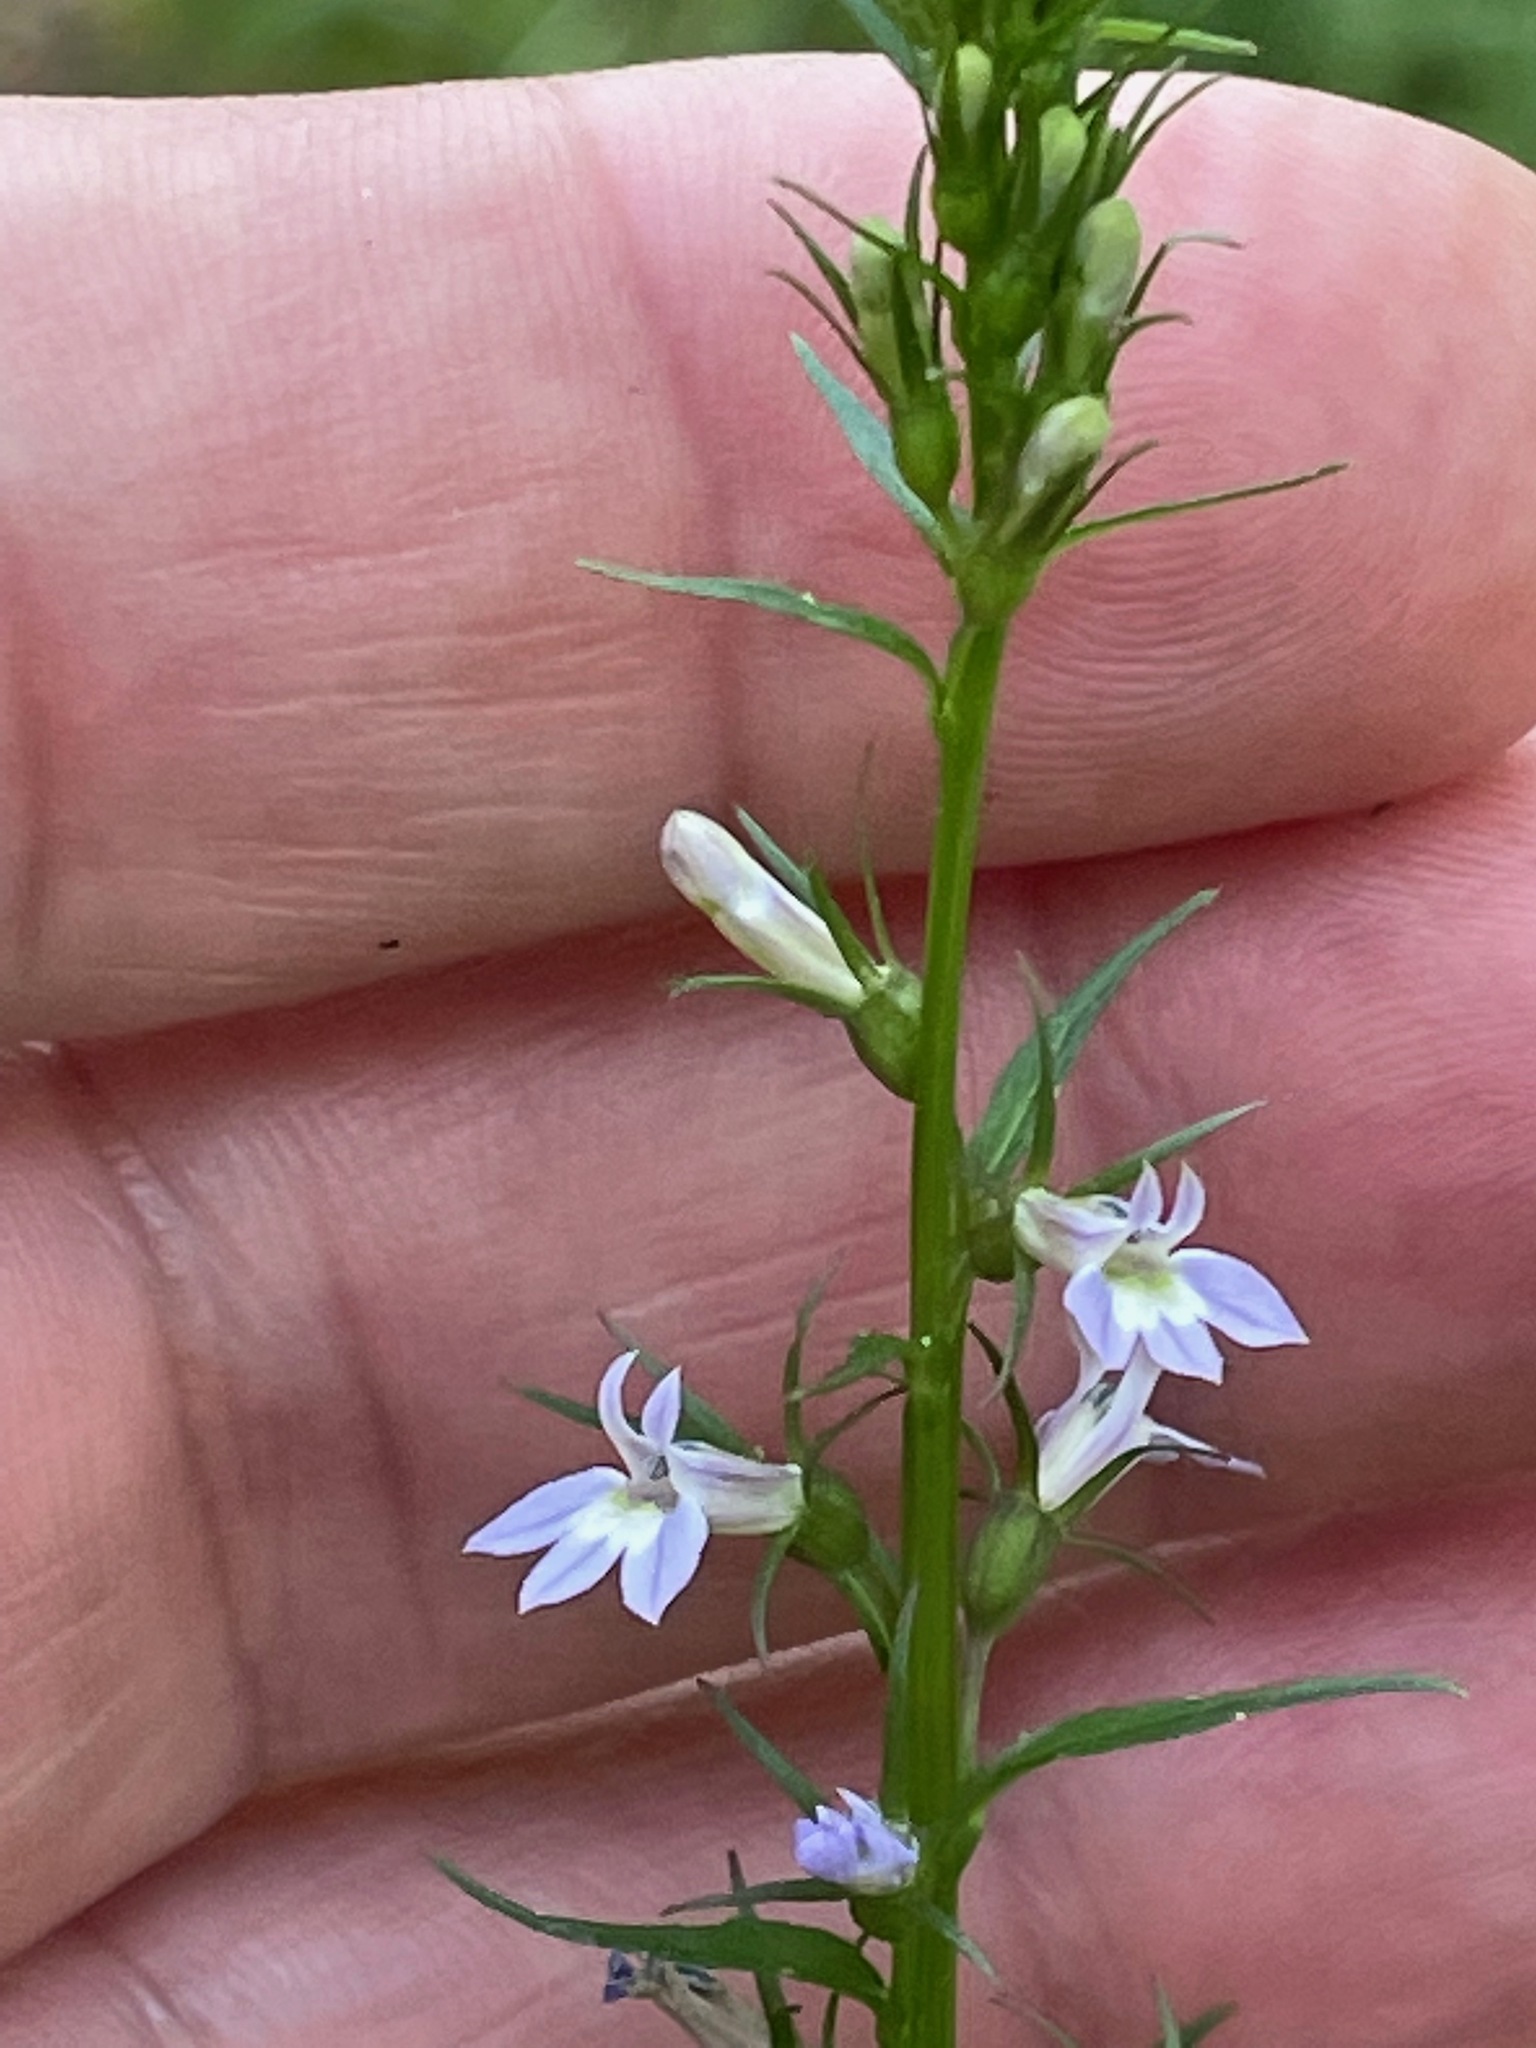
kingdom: Plantae
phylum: Tracheophyta
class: Magnoliopsida
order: Asterales
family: Campanulaceae
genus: Lobelia
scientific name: Lobelia inflata
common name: Indian tobacco
